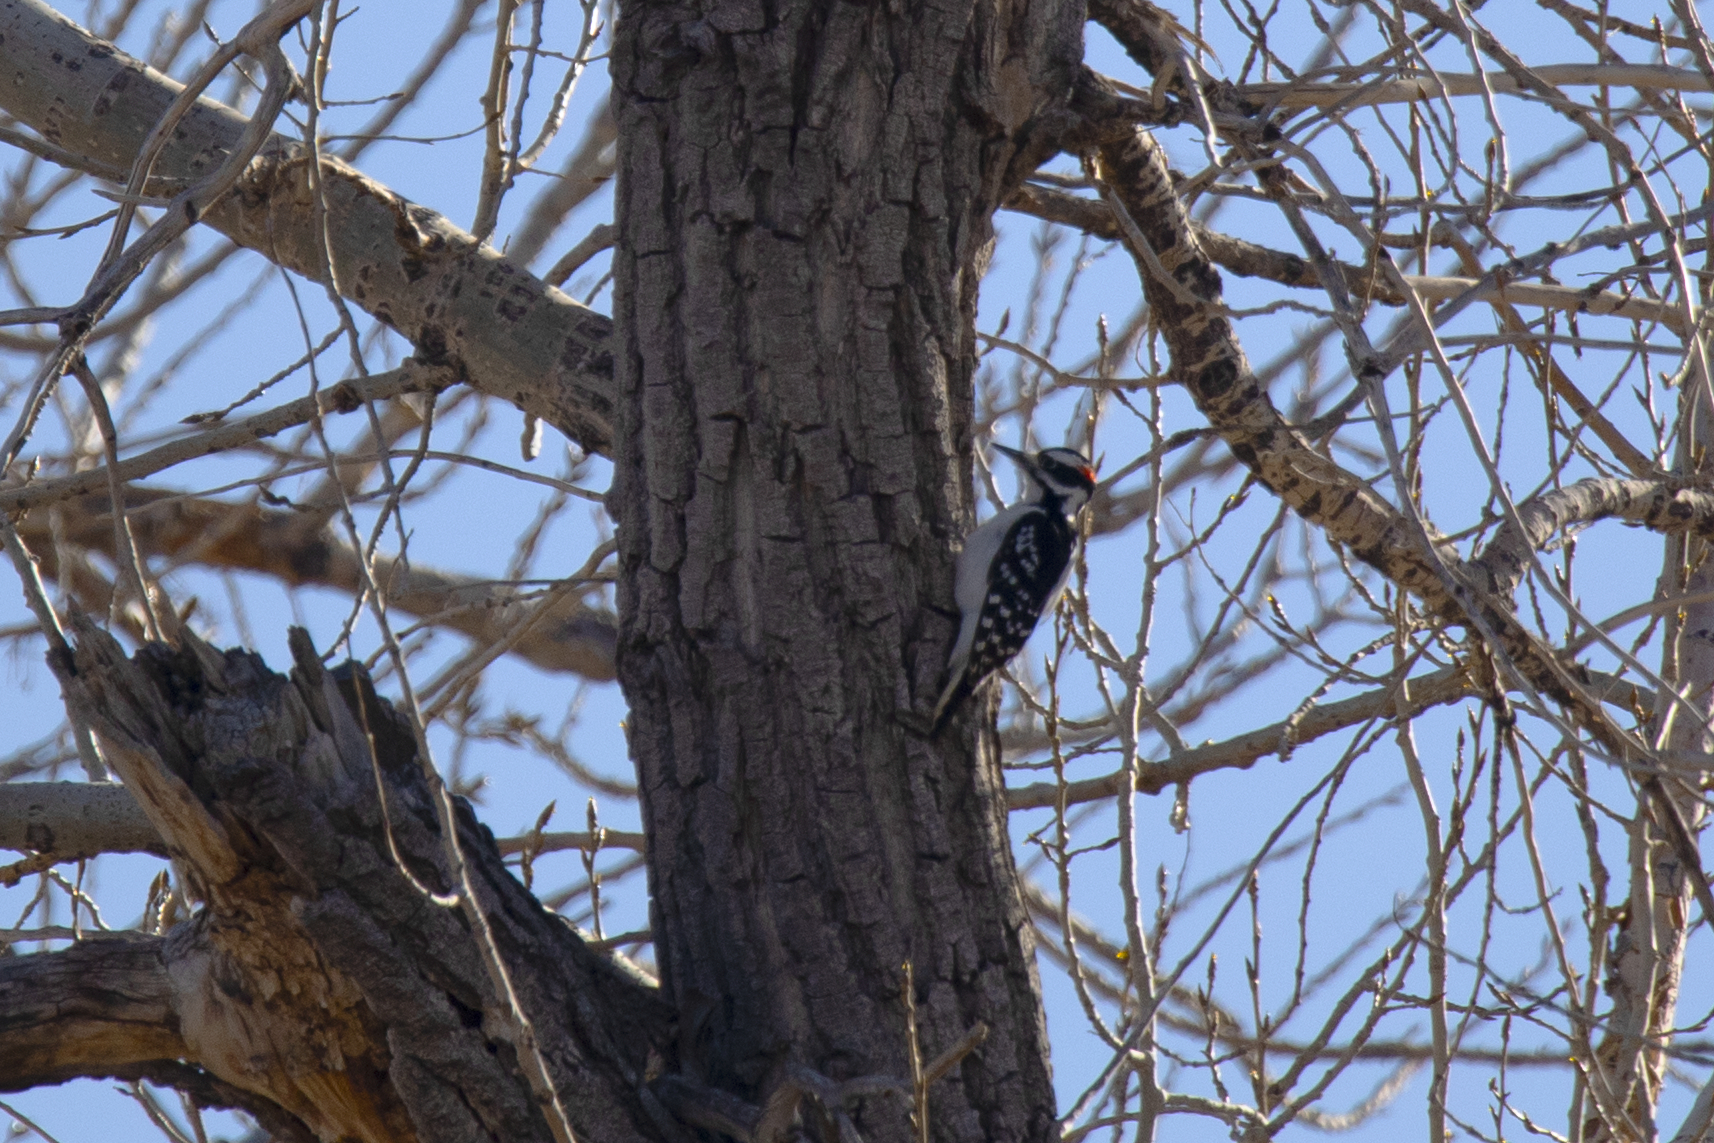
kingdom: Animalia
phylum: Chordata
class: Aves
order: Piciformes
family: Picidae
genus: Leuconotopicus
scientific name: Leuconotopicus villosus
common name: Hairy woodpecker
